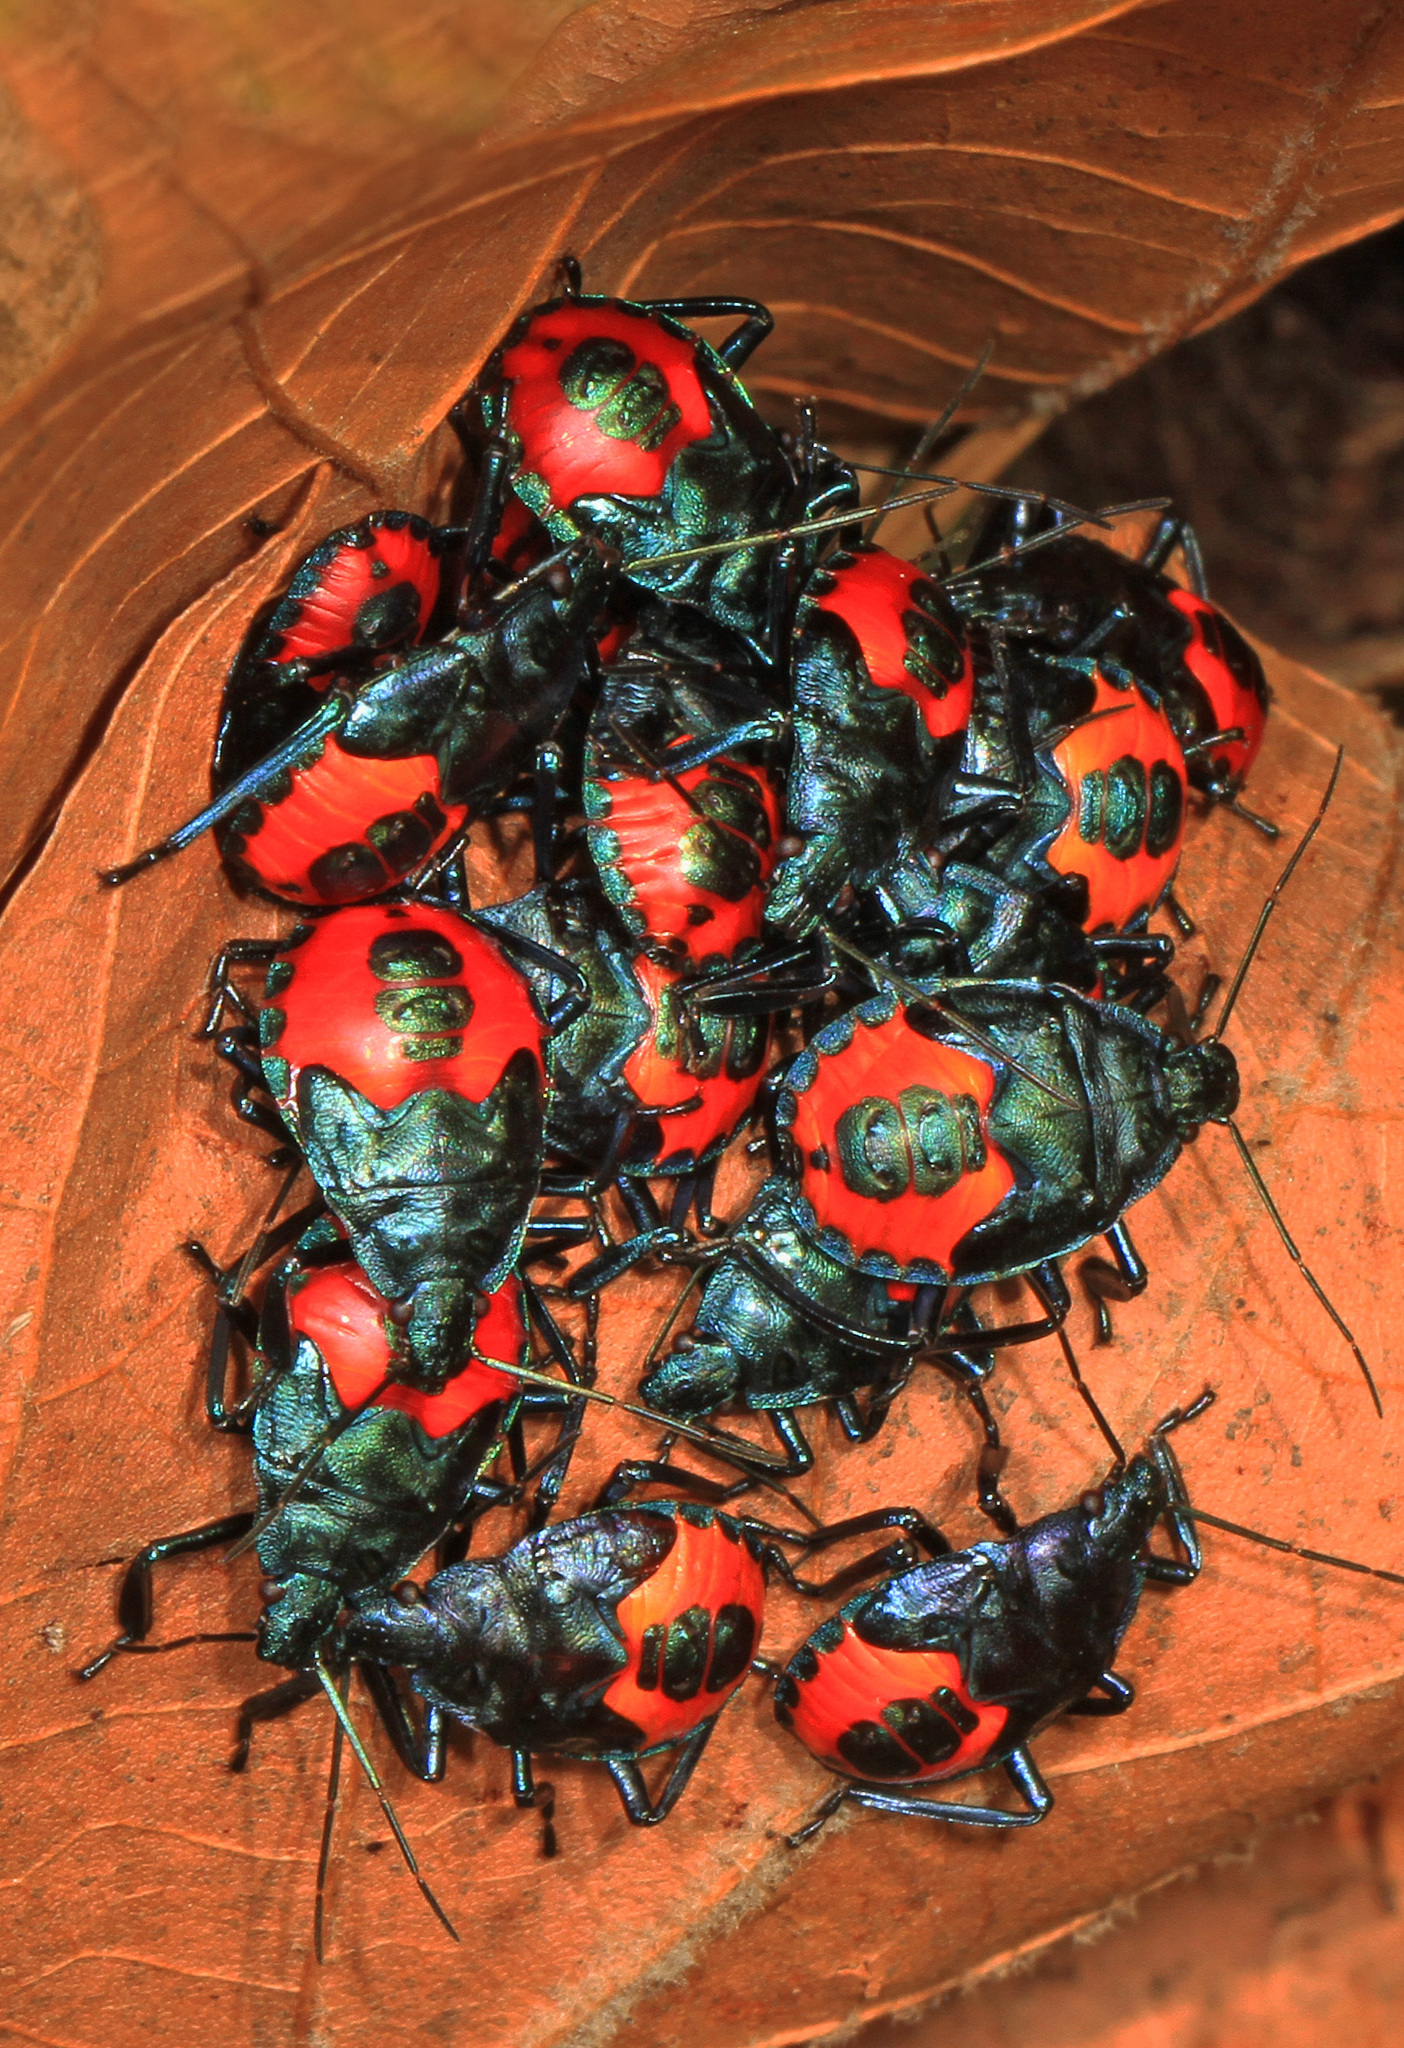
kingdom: Animalia
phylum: Arthropoda
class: Insecta
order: Hemiptera
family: Pentatomidae
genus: Euthyrhynchus
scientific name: Euthyrhynchus floridanus
